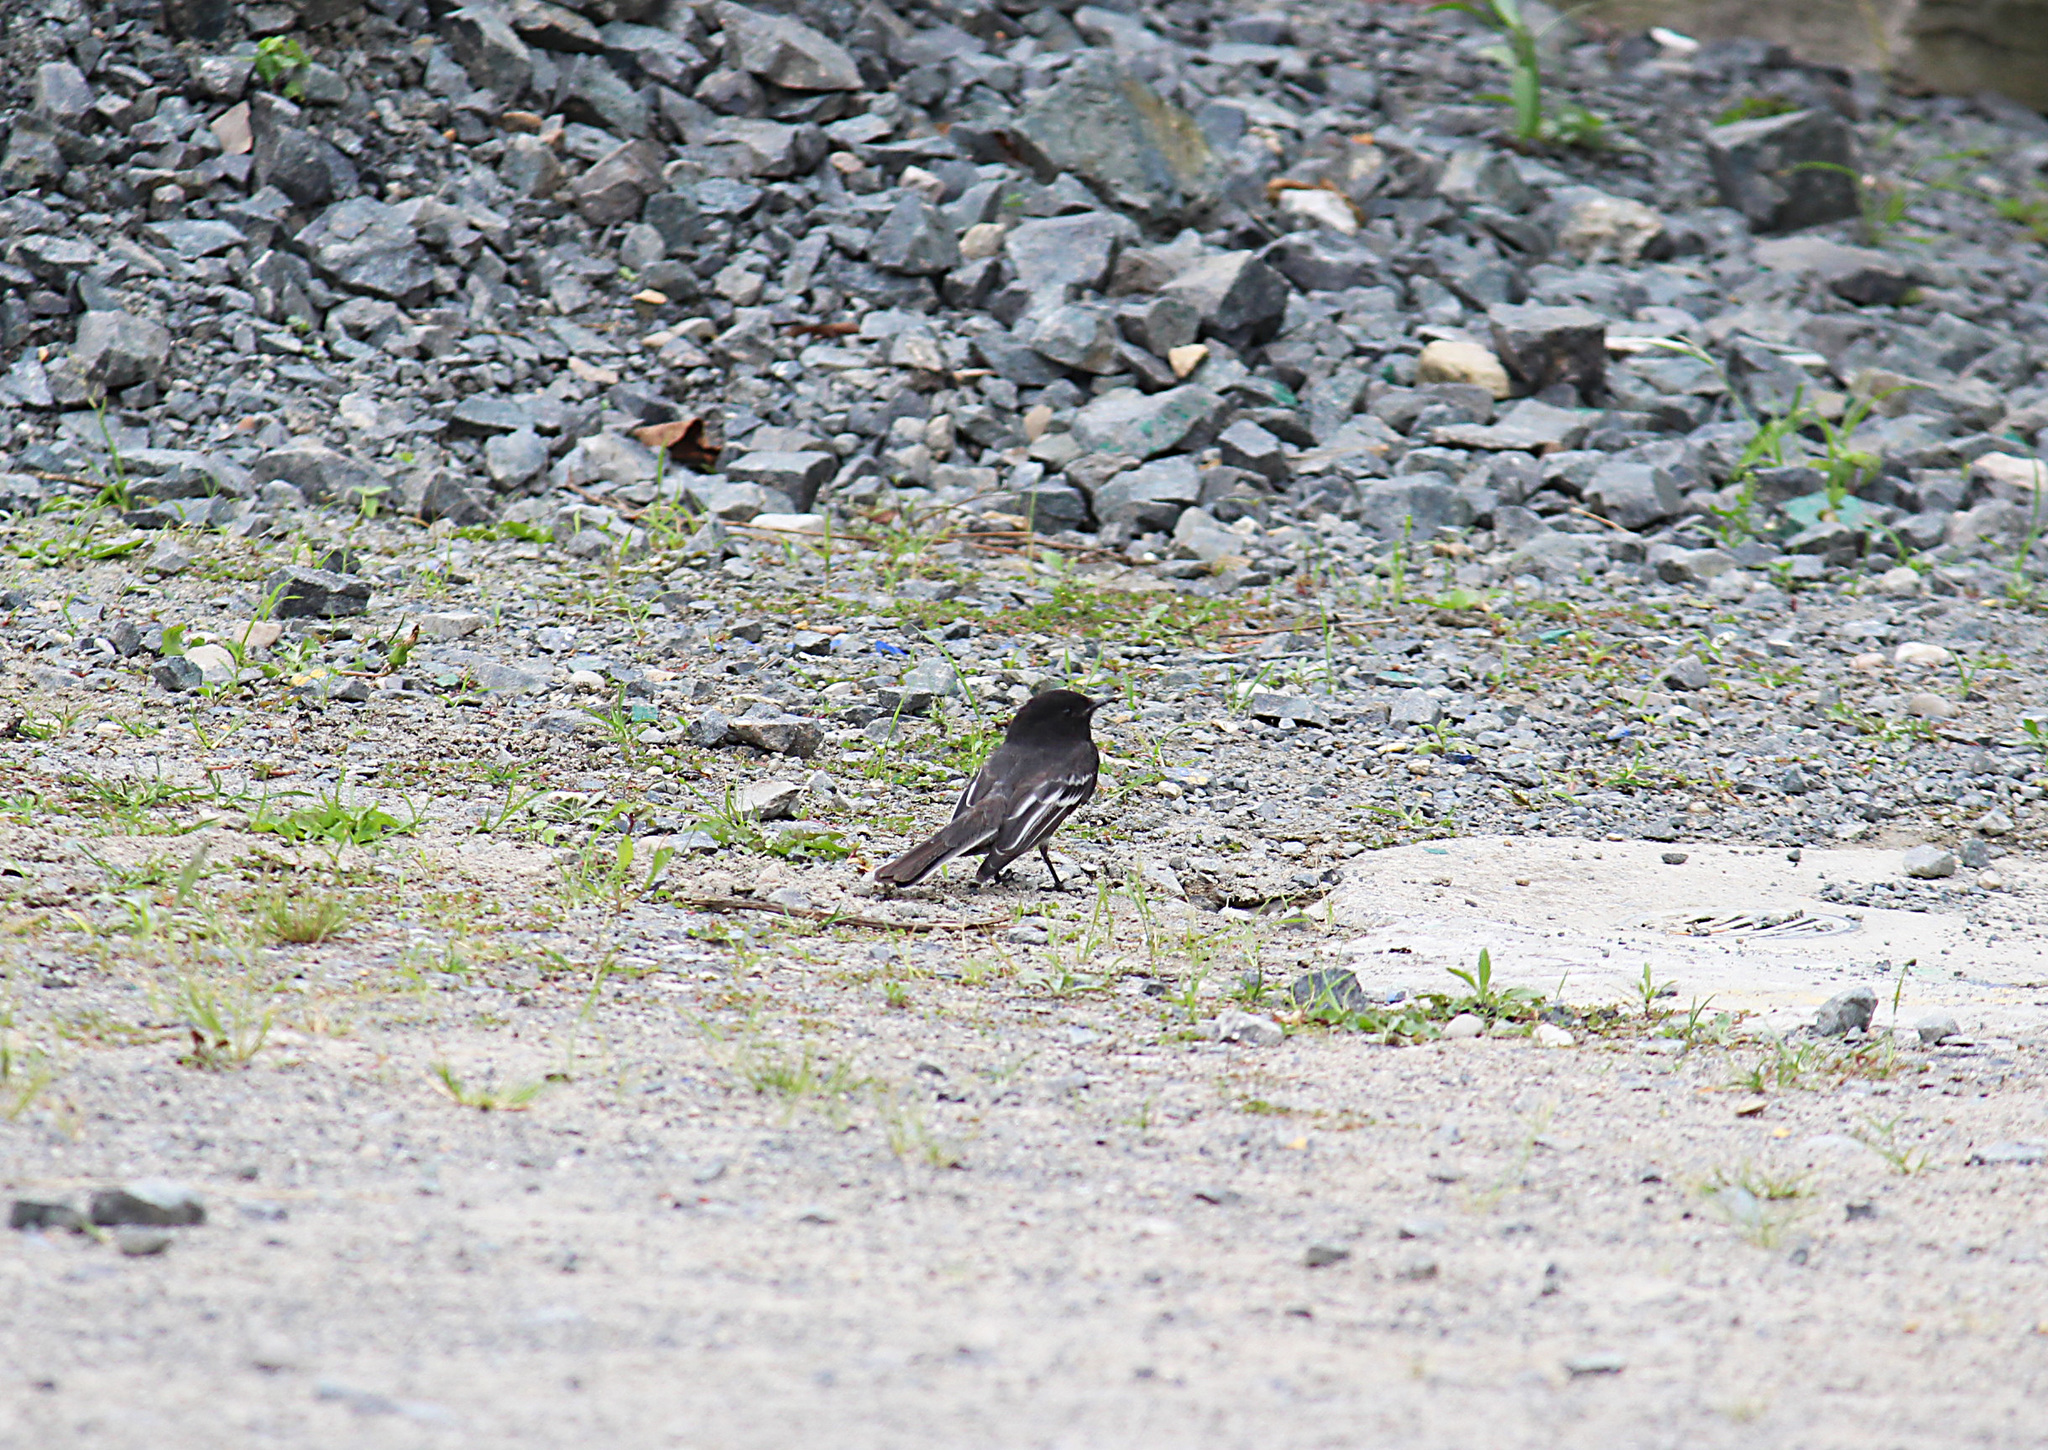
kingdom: Animalia
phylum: Chordata
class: Aves
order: Passeriformes
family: Tyrannidae
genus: Sayornis
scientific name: Sayornis nigricans
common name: Black phoebe
